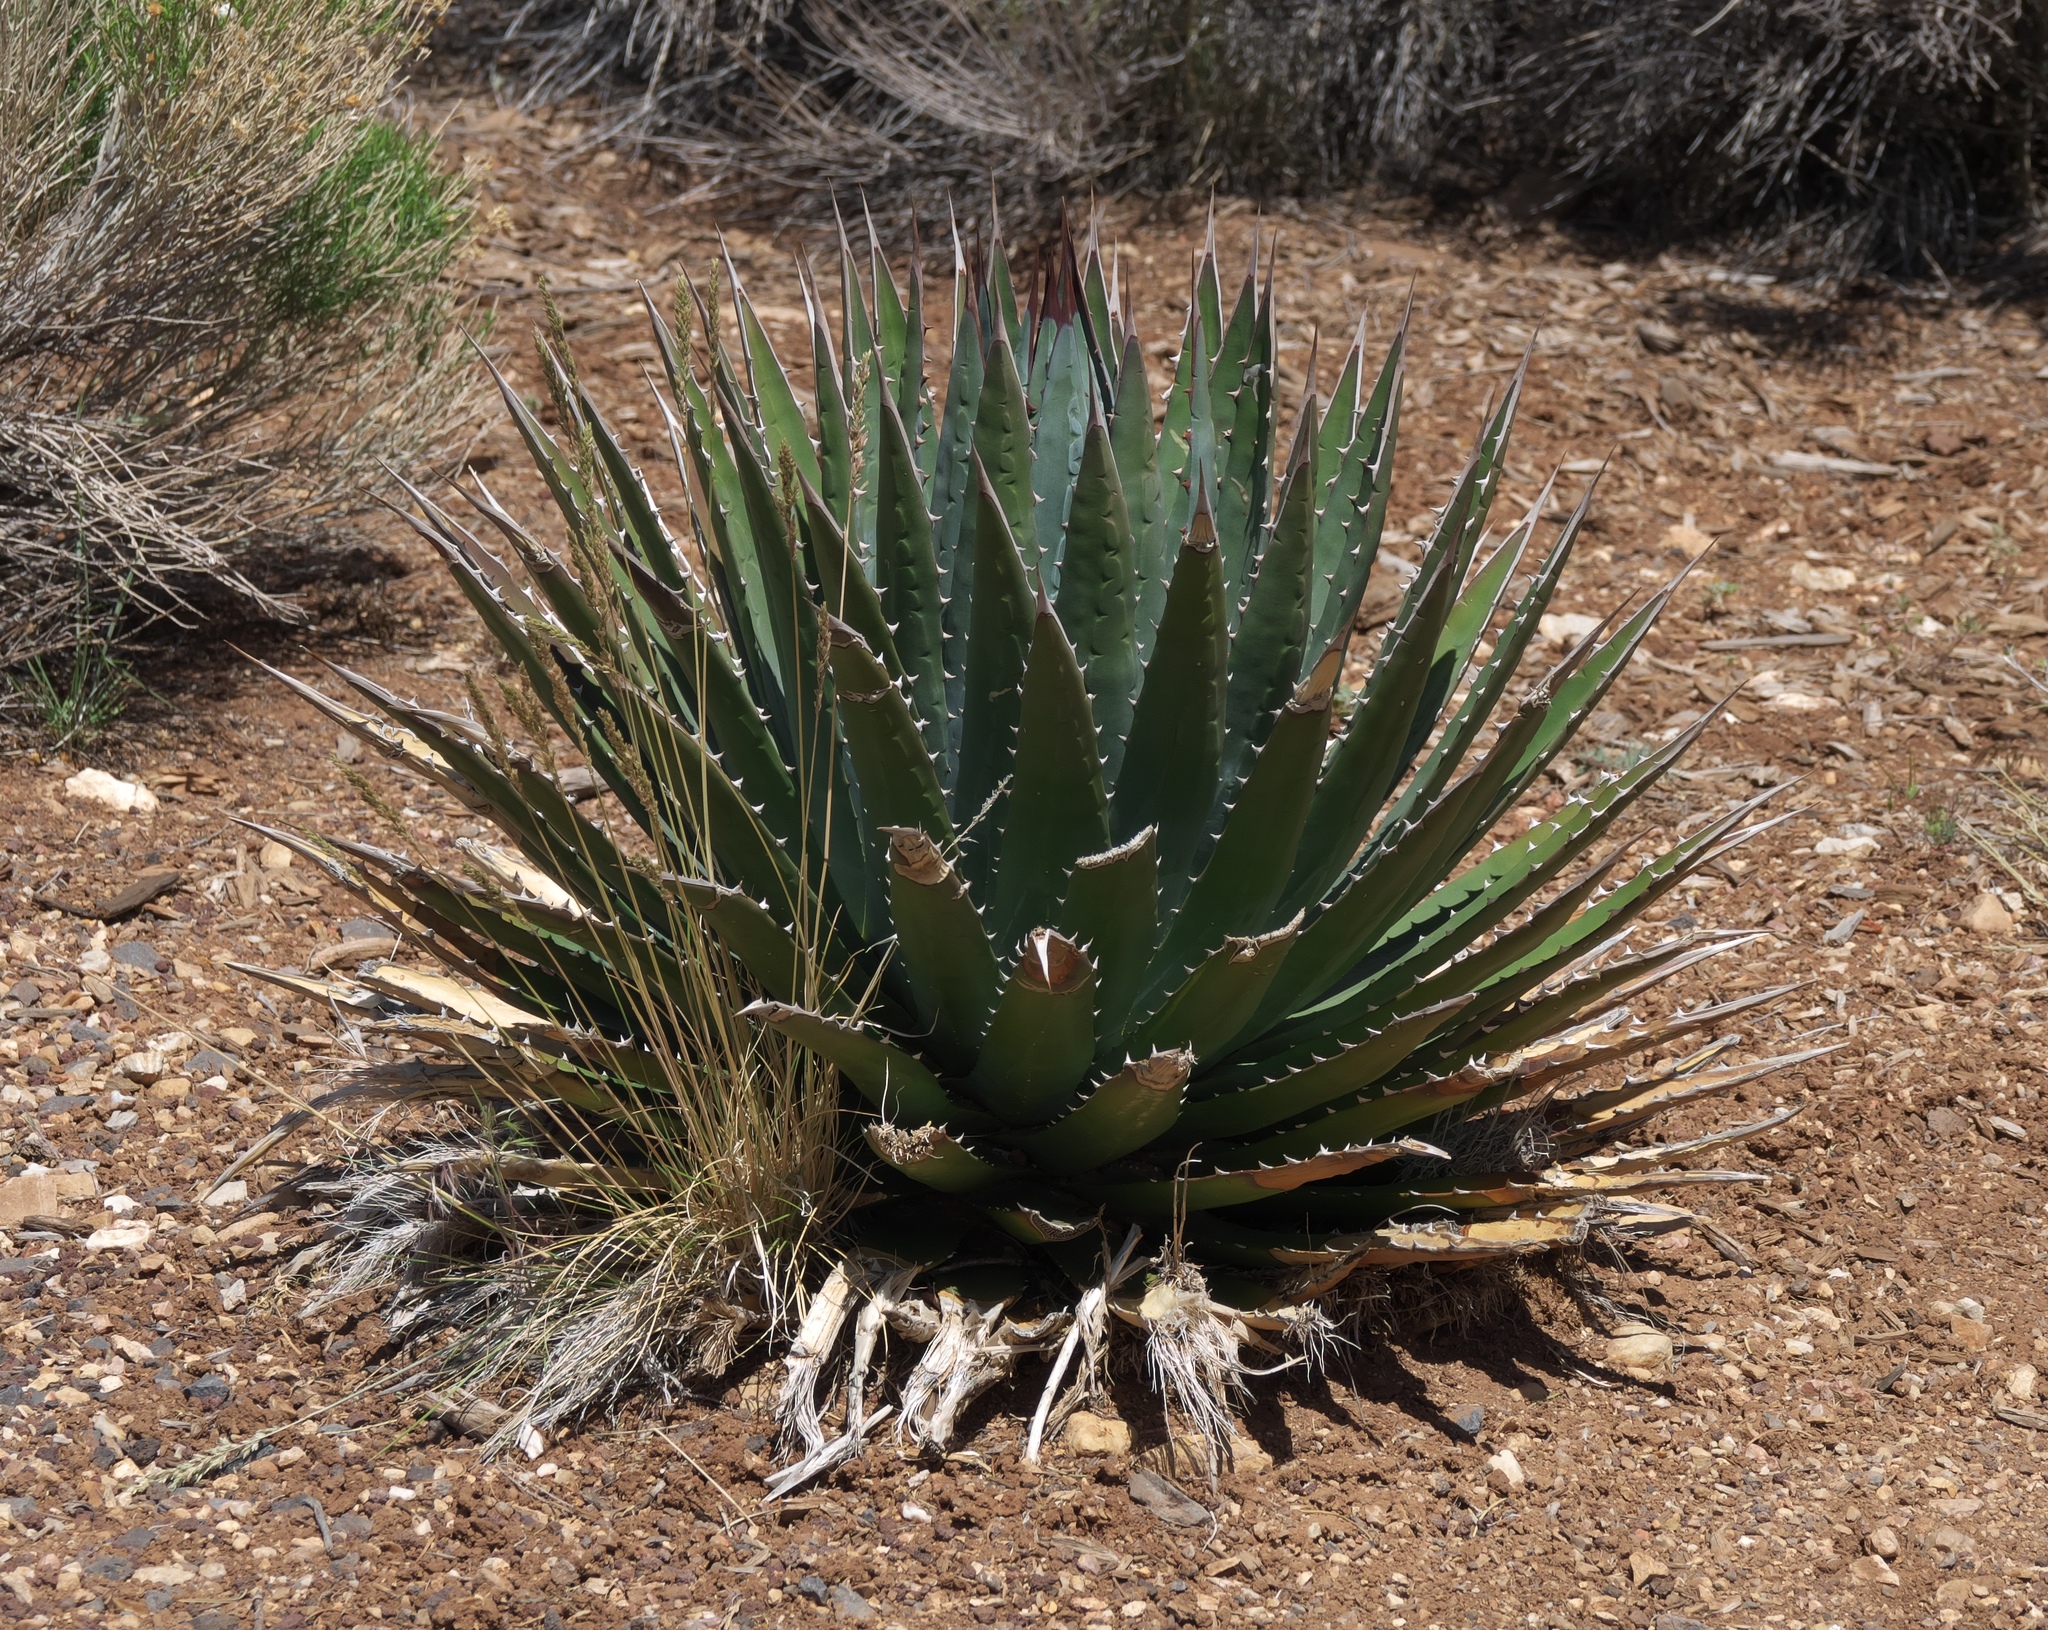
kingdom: Plantae
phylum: Tracheophyta
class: Liliopsida
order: Asparagales
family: Asparagaceae
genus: Agave
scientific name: Agave utahensis
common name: Utah agave
